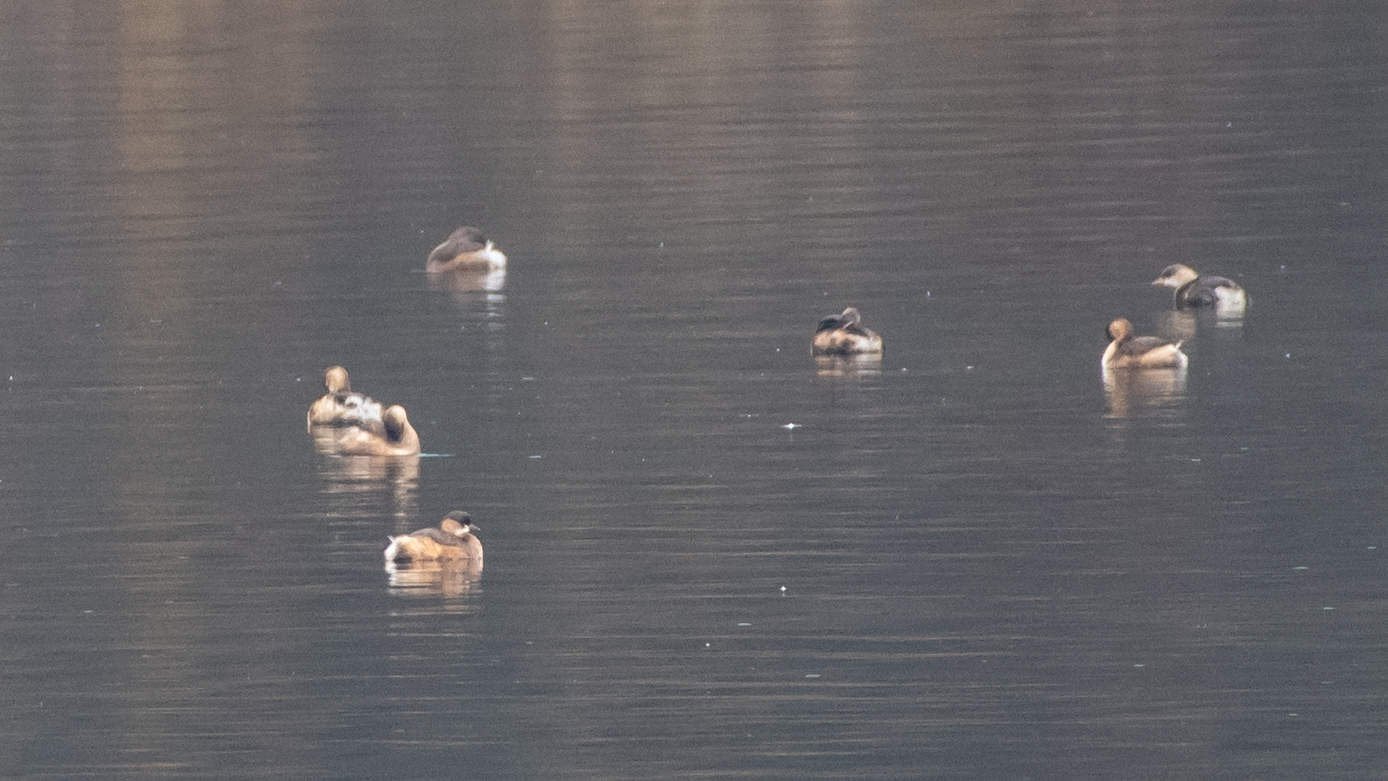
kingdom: Animalia
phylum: Chordata
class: Aves
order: Podicipediformes
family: Podicipedidae
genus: Tachybaptus
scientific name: Tachybaptus ruficollis
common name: Little grebe
